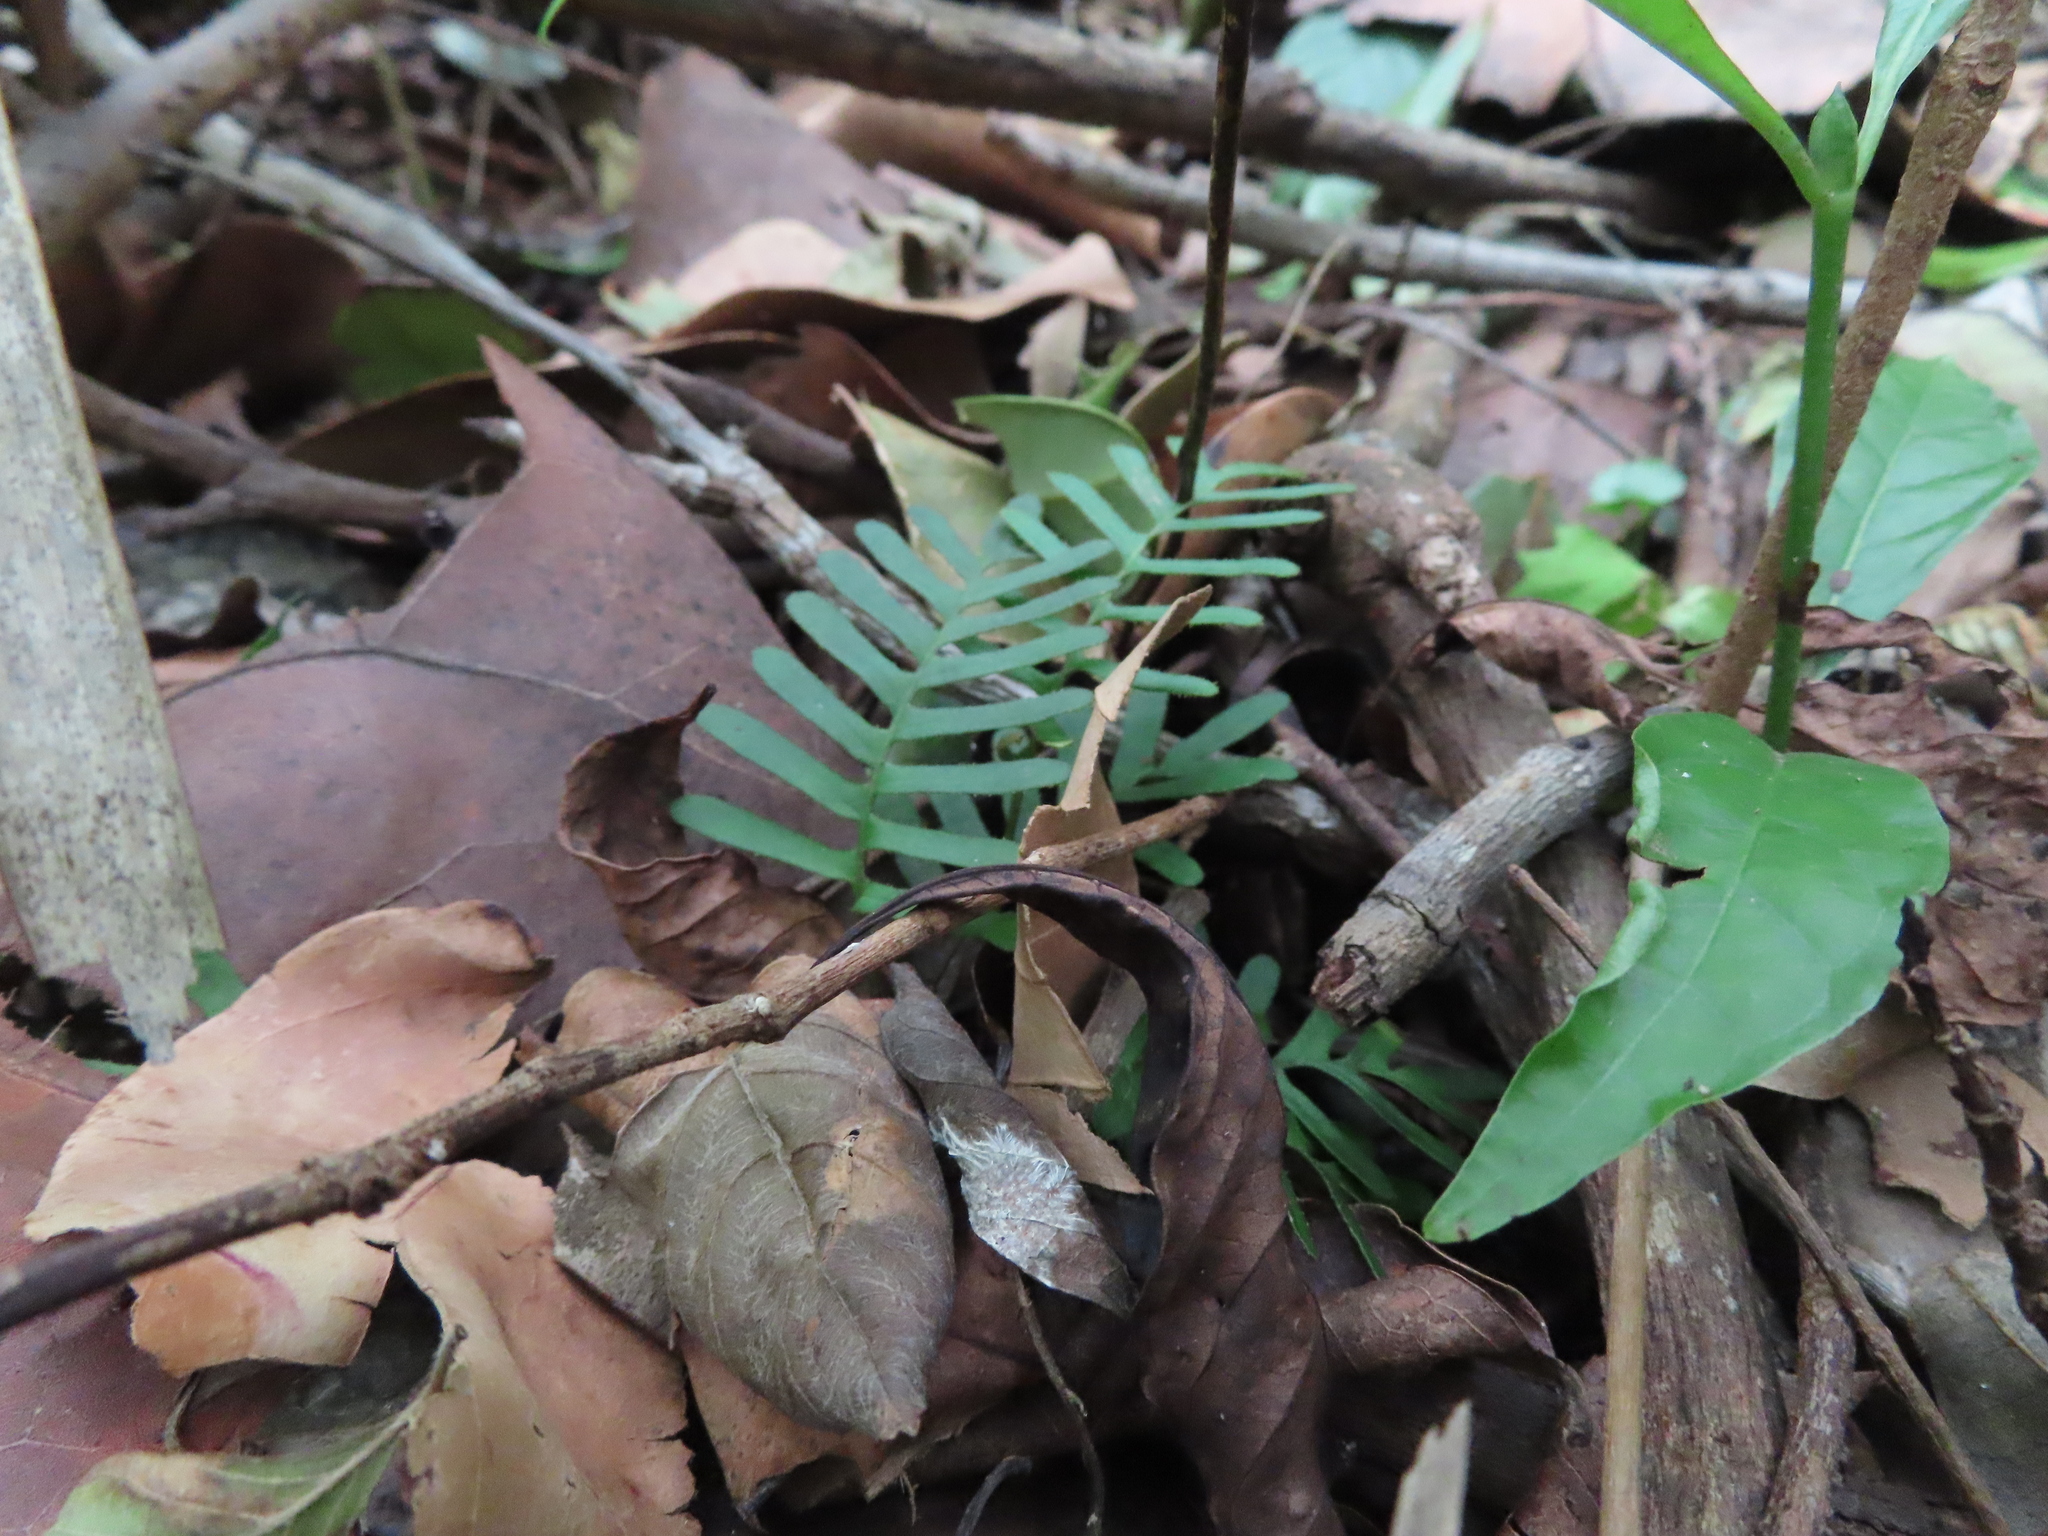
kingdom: Plantae
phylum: Tracheophyta
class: Polypodiopsida
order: Polypodiales
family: Polypodiaceae
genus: Pleopeltis
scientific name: Pleopeltis michauxiana
